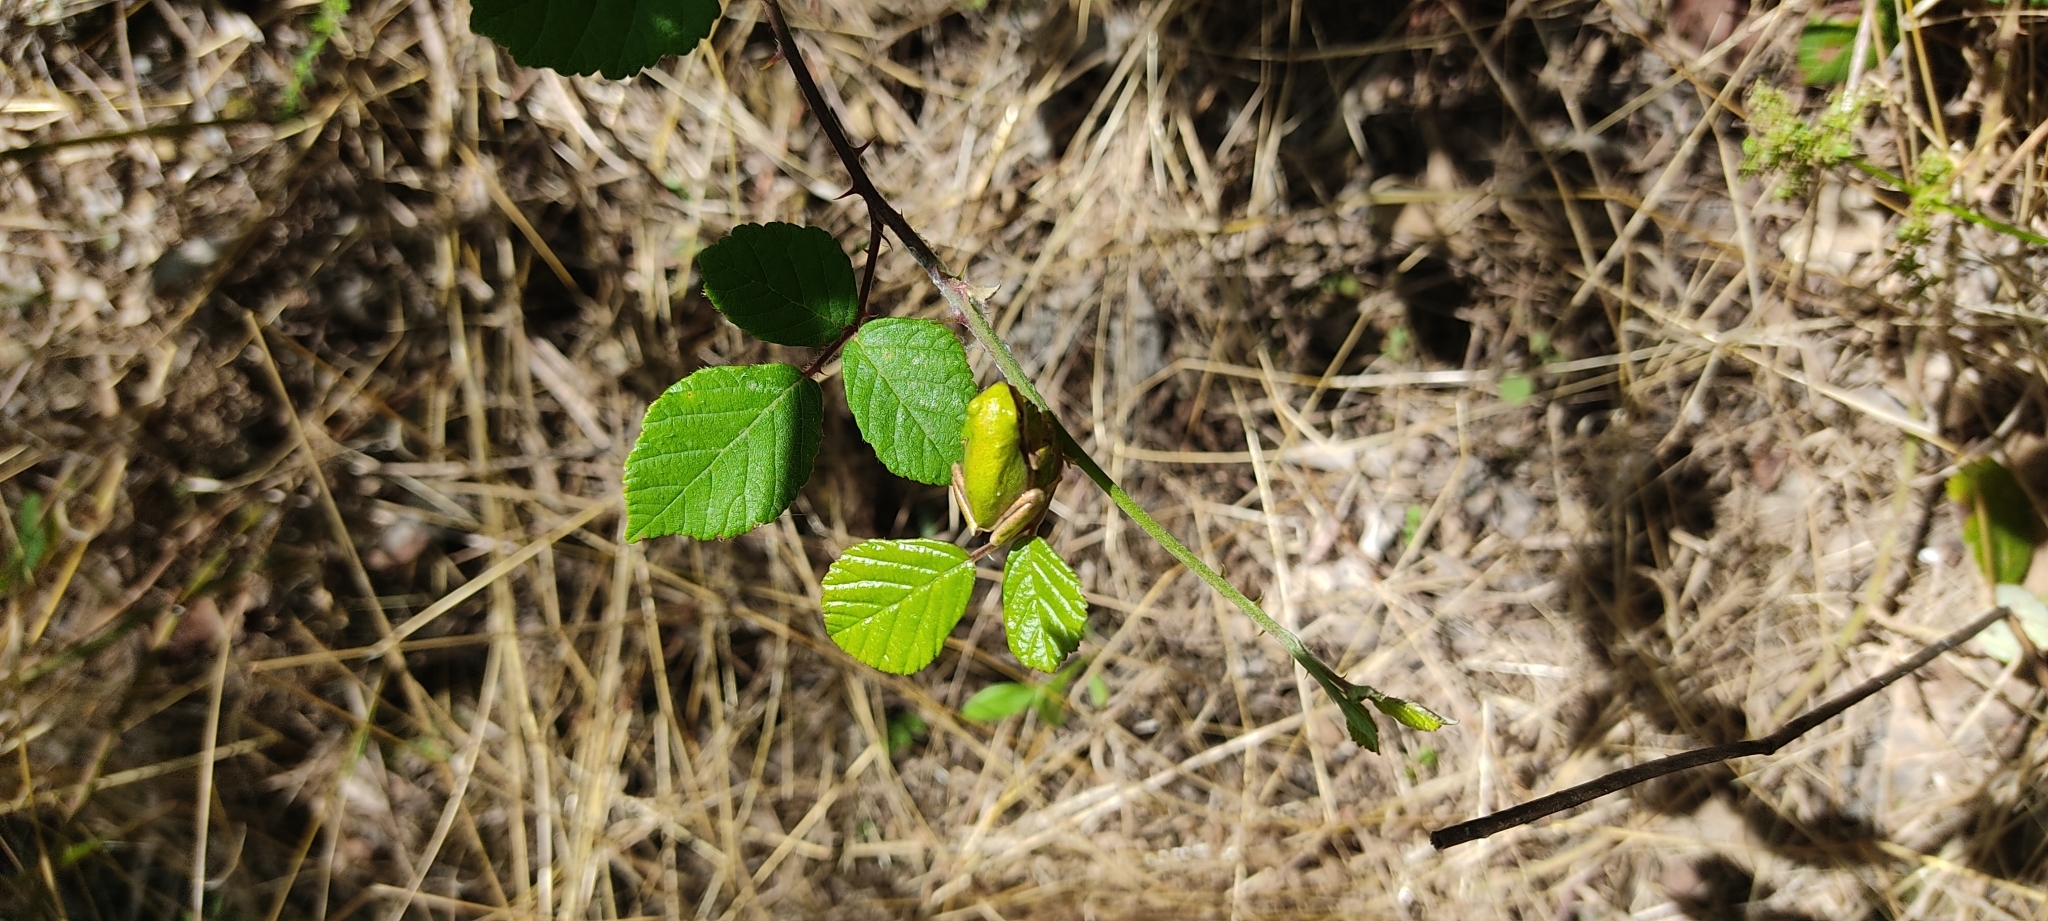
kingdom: Animalia
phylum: Chordata
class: Amphibia
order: Anura
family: Hylidae
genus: Hyla
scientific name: Hyla meridionalis
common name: Stripeless tree frog
